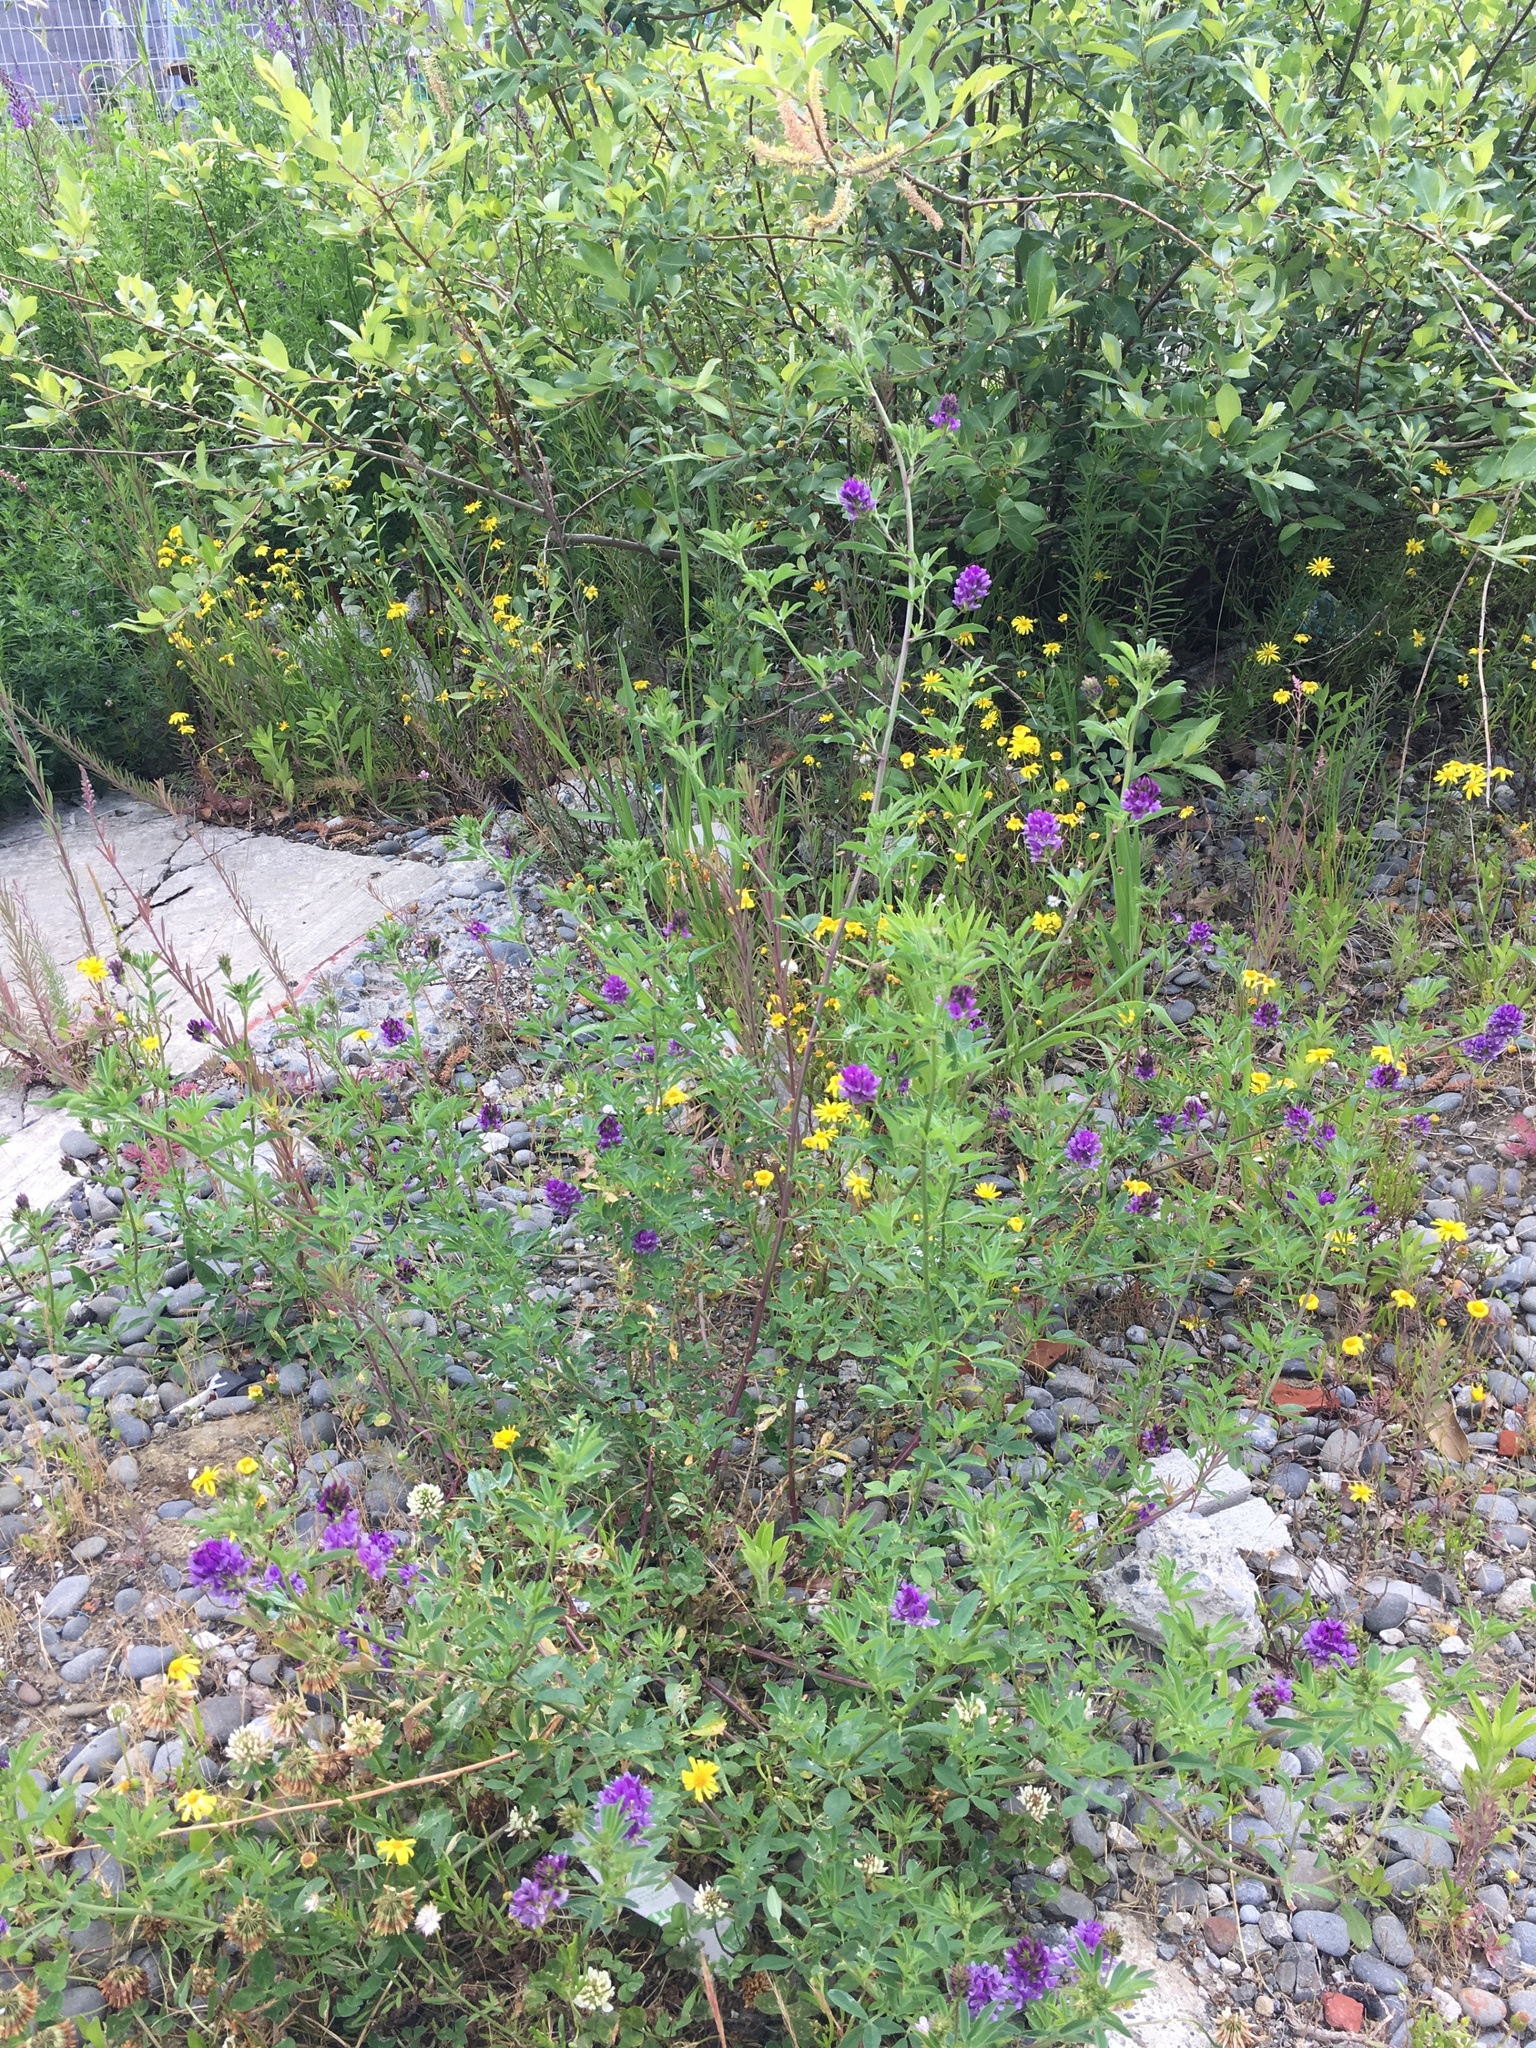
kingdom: Plantae
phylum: Tracheophyta
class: Magnoliopsida
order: Fabales
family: Fabaceae
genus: Medicago
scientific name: Medicago sativa
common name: Alfalfa
